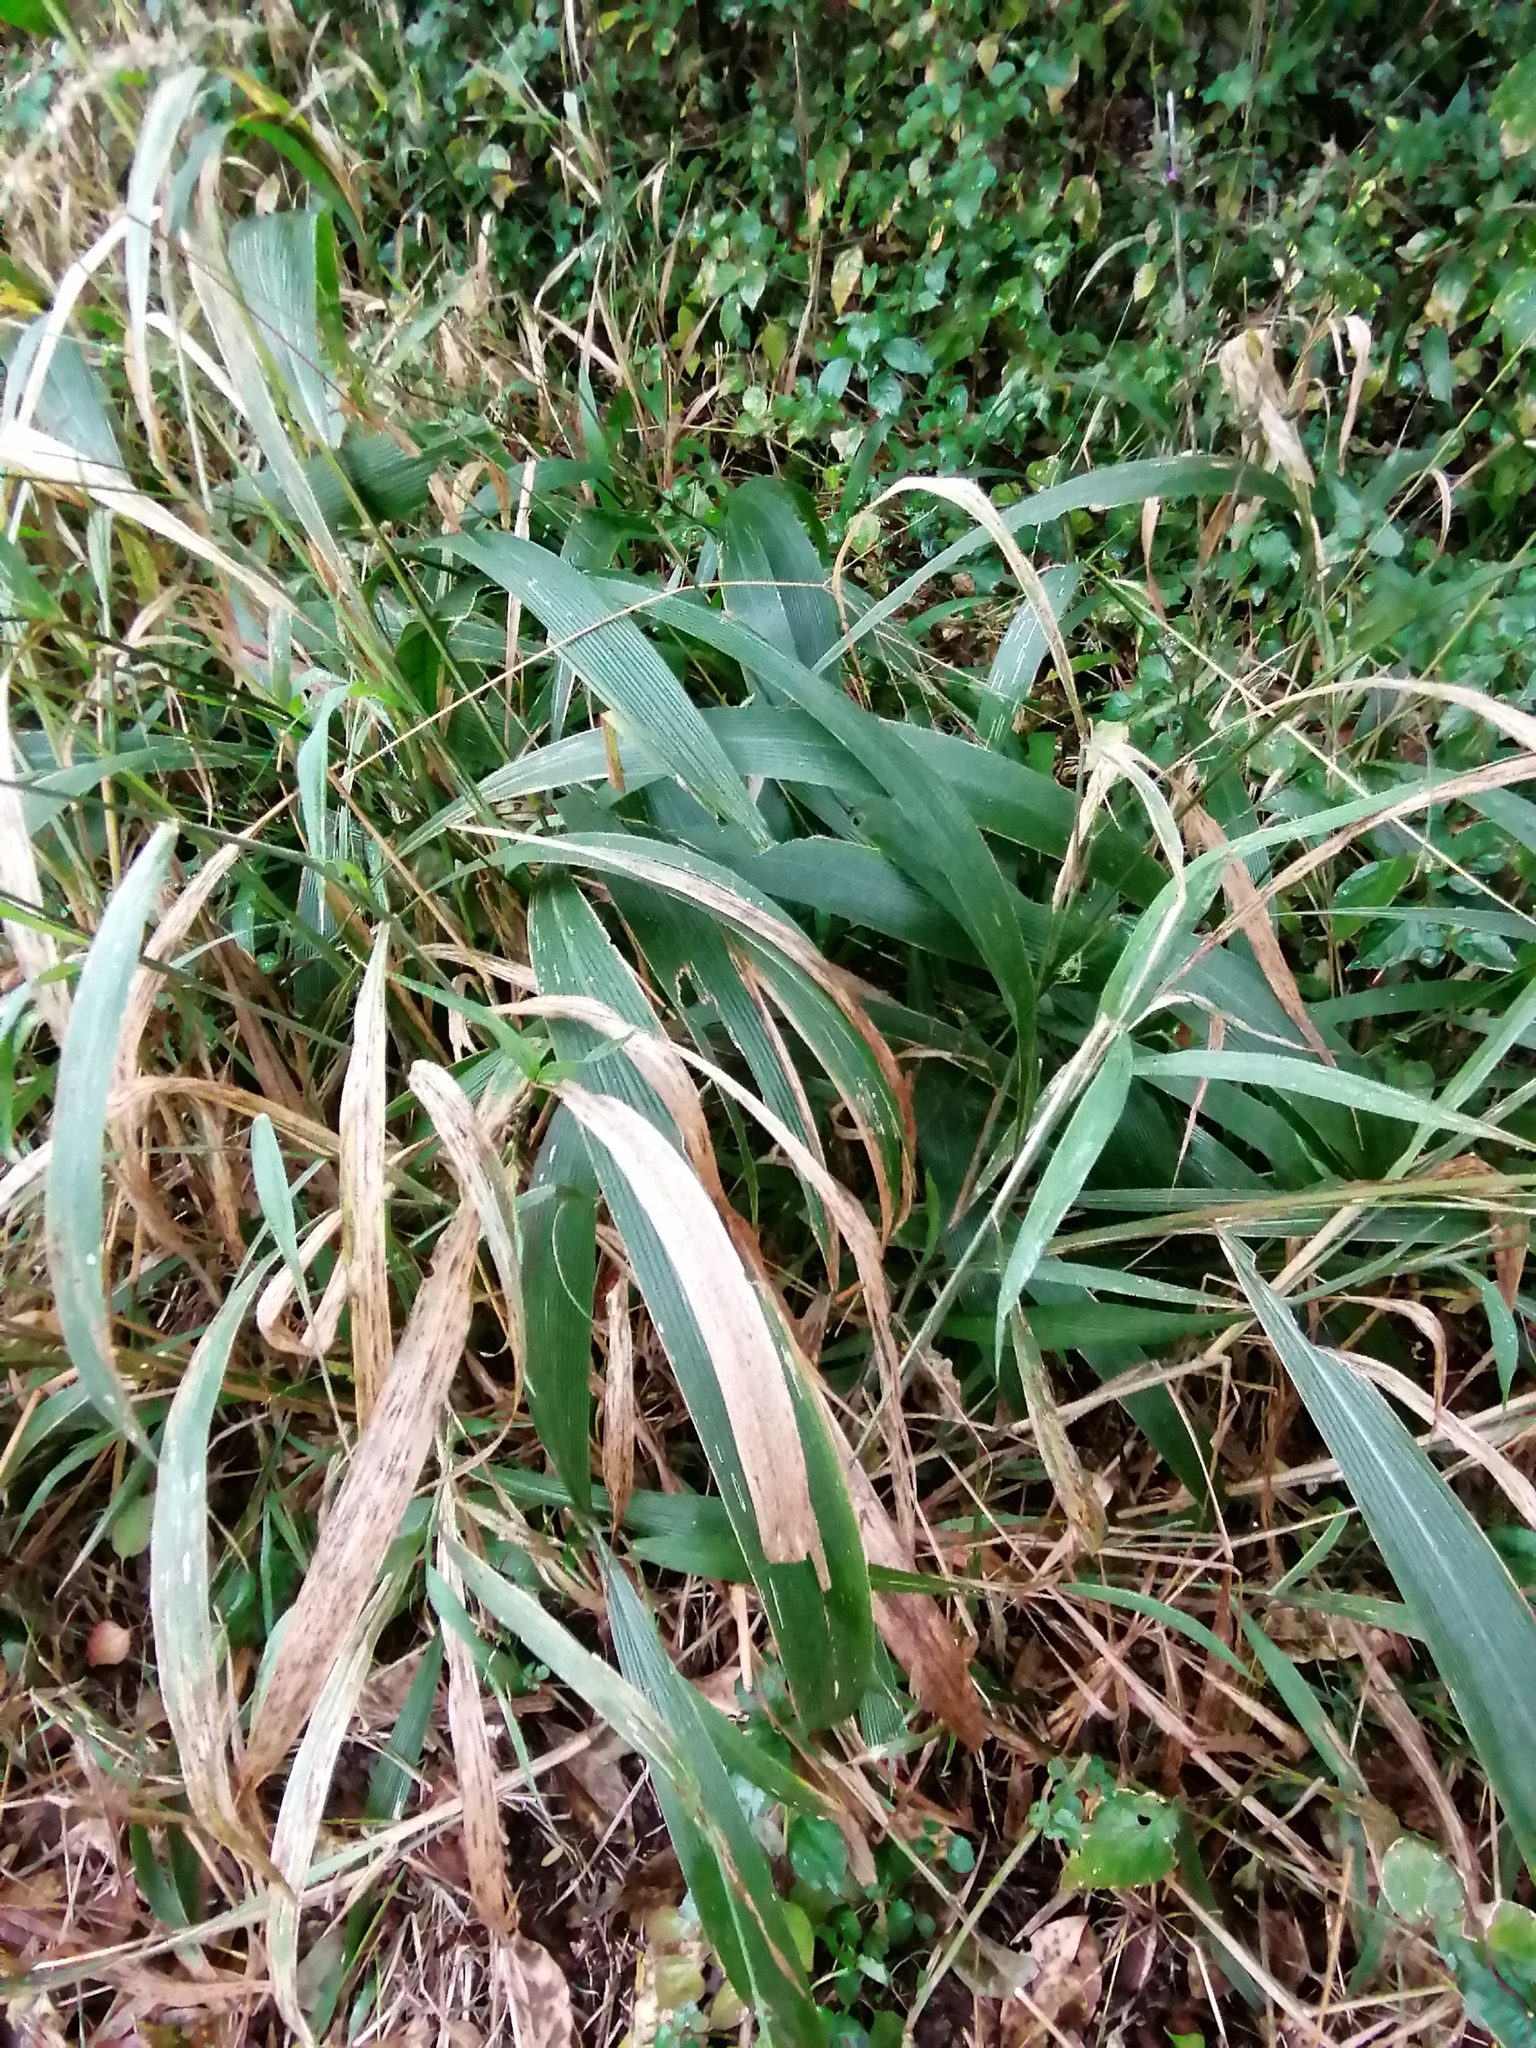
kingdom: Plantae
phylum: Tracheophyta
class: Liliopsida
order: Poales
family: Poaceae
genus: Setaria
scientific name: Setaria megaphylla
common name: Bigleaf bristlegrass
